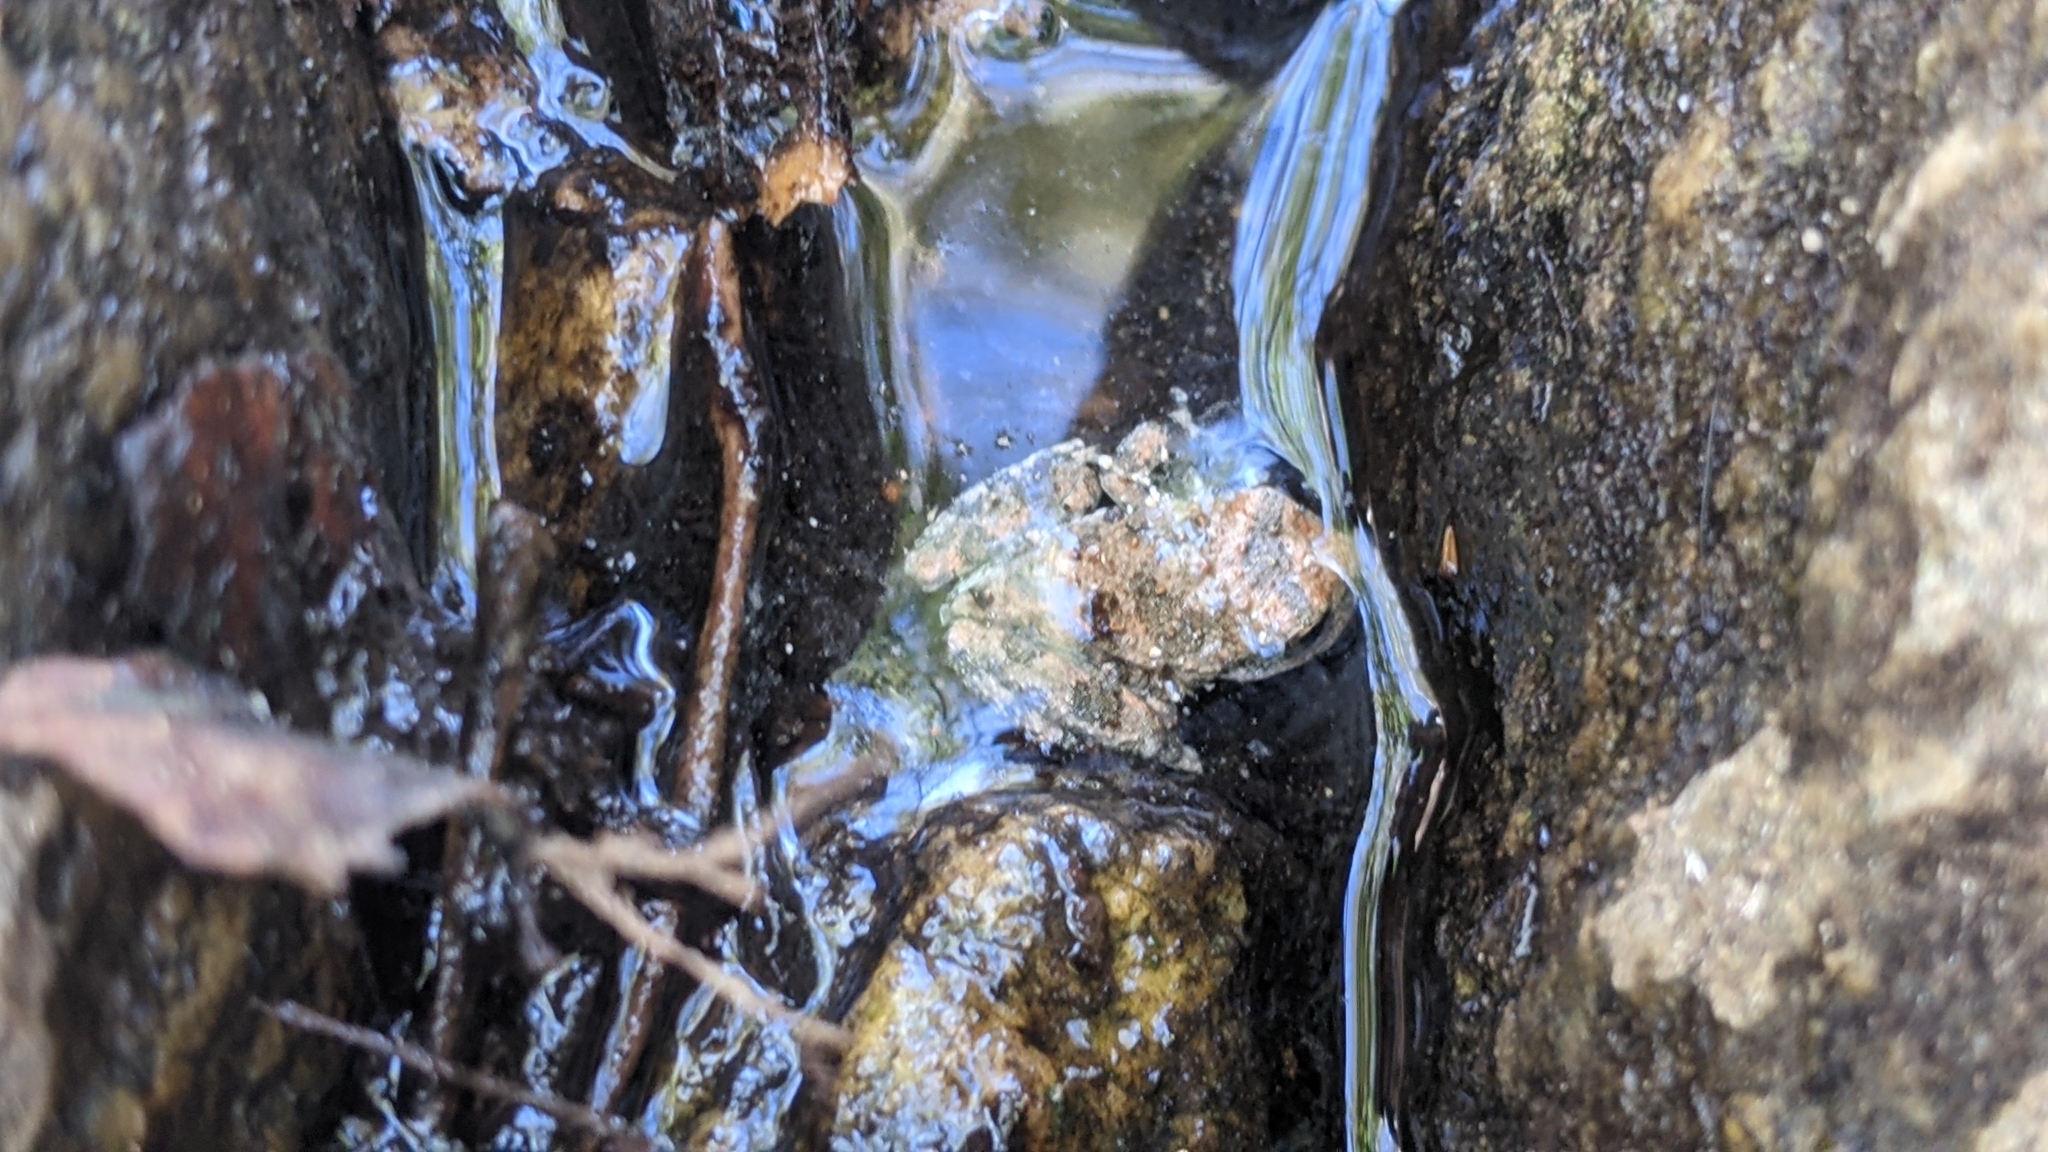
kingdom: Animalia
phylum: Chordata
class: Amphibia
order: Anura
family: Hylidae
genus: Pseudacris
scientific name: Pseudacris cadaverina
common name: California chorus frog
